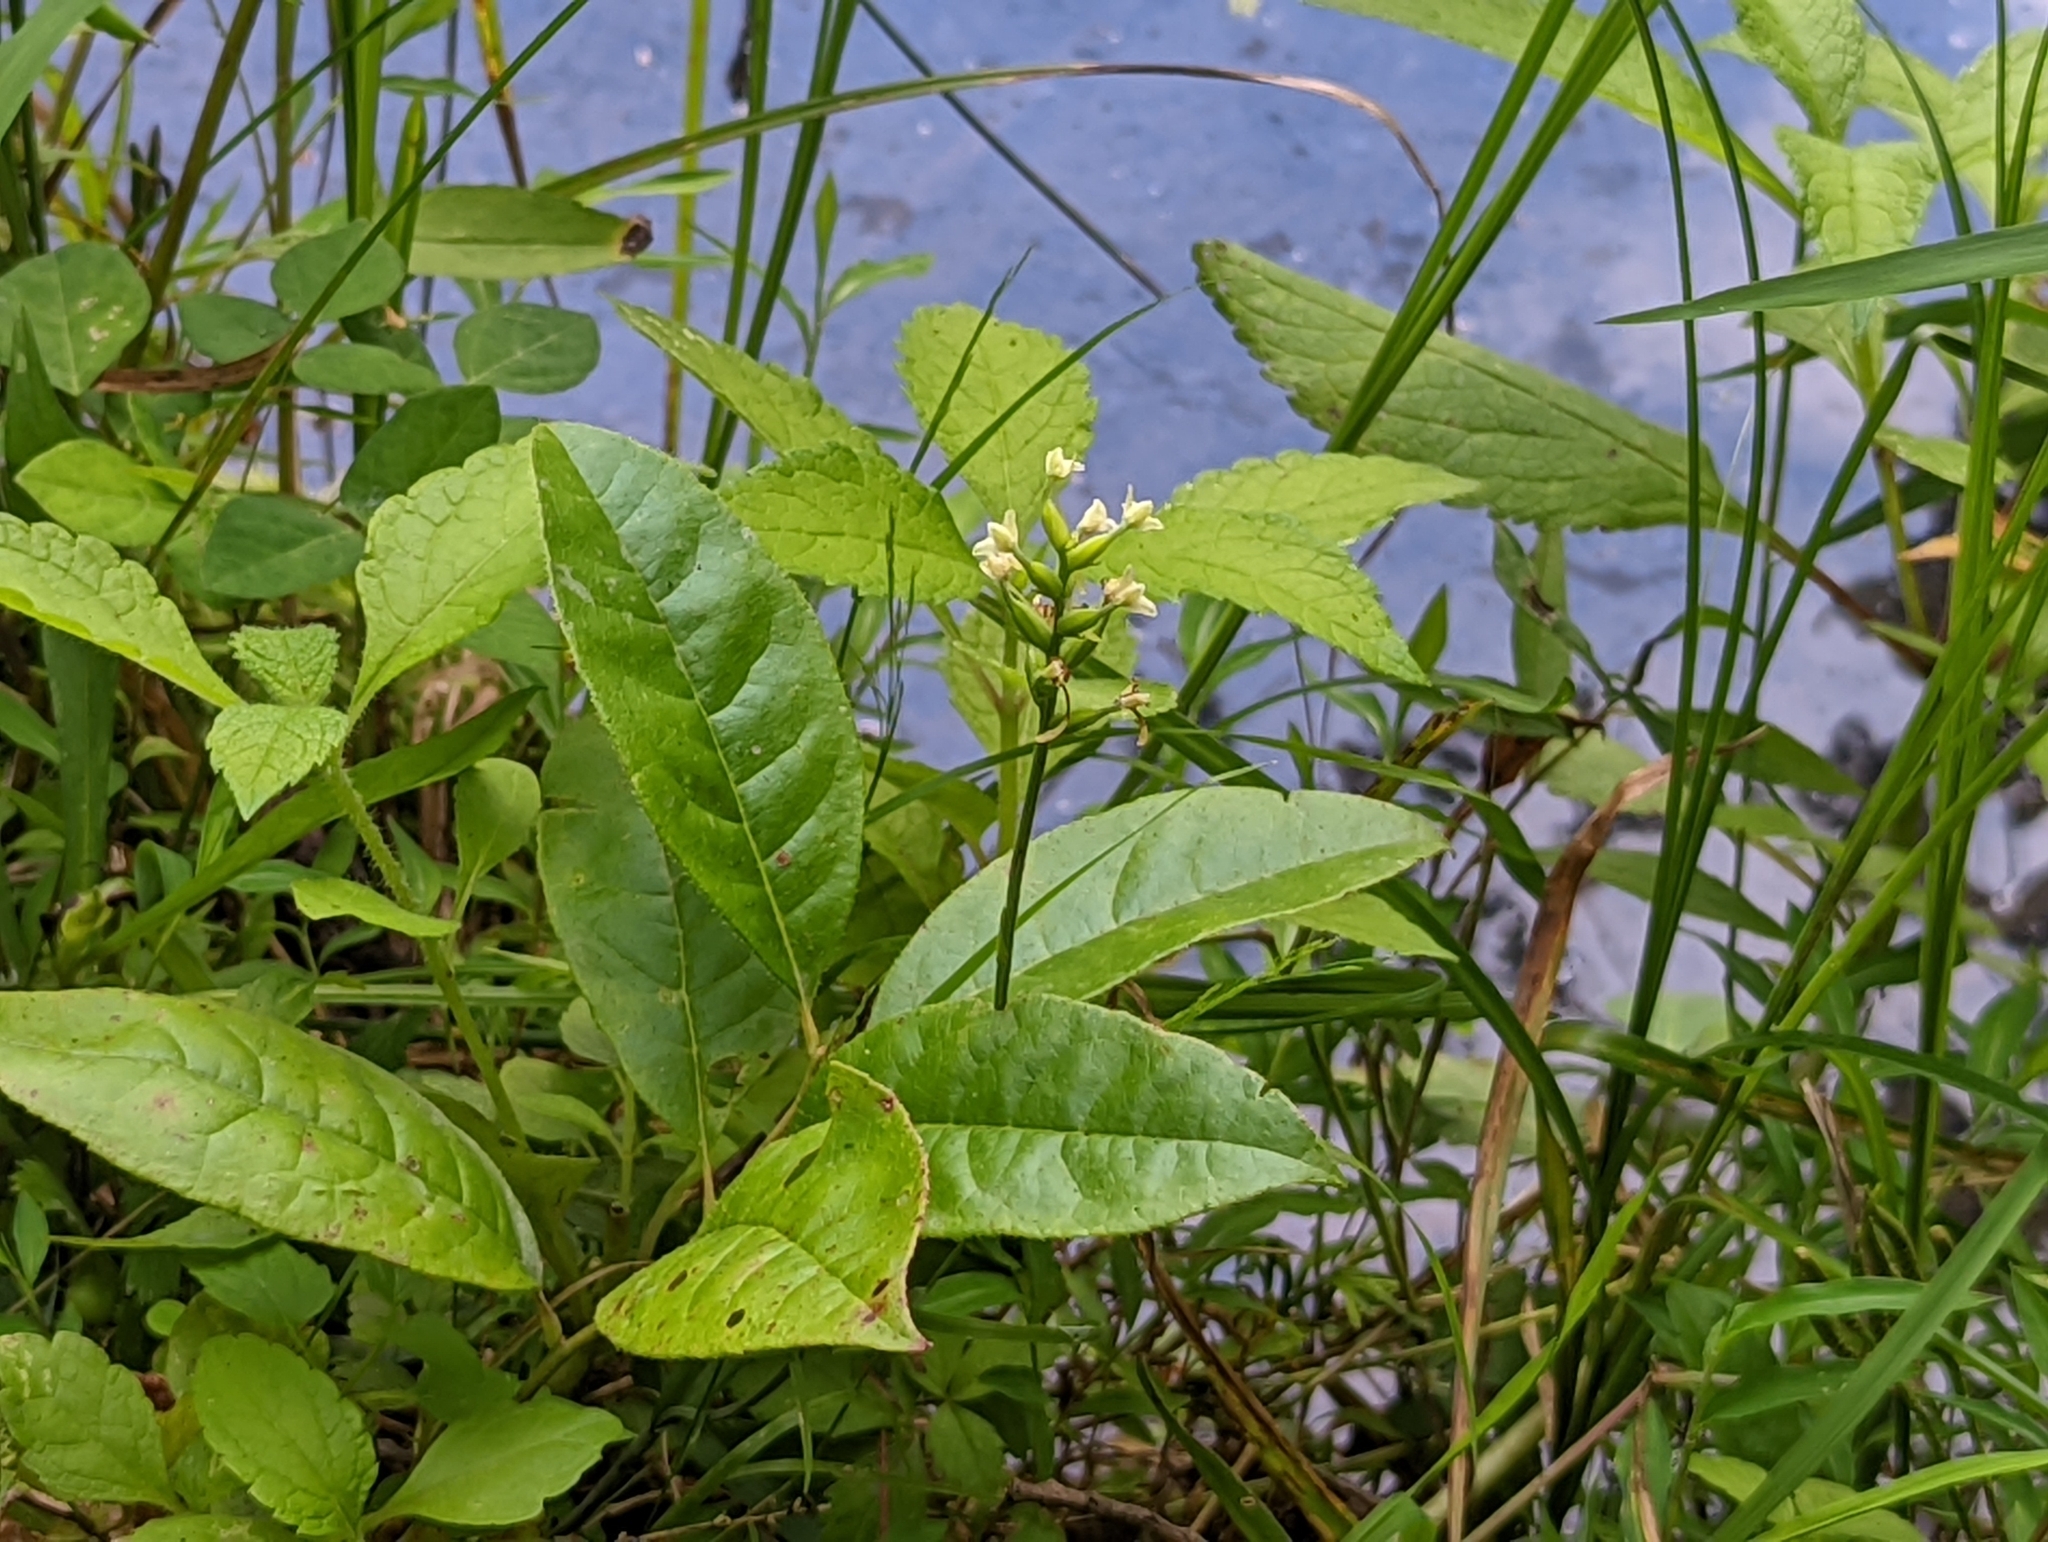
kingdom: Plantae
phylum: Tracheophyta
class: Liliopsida
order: Asparagales
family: Orchidaceae
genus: Platanthera
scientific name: Platanthera clavellata
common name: Club-spur orchid
